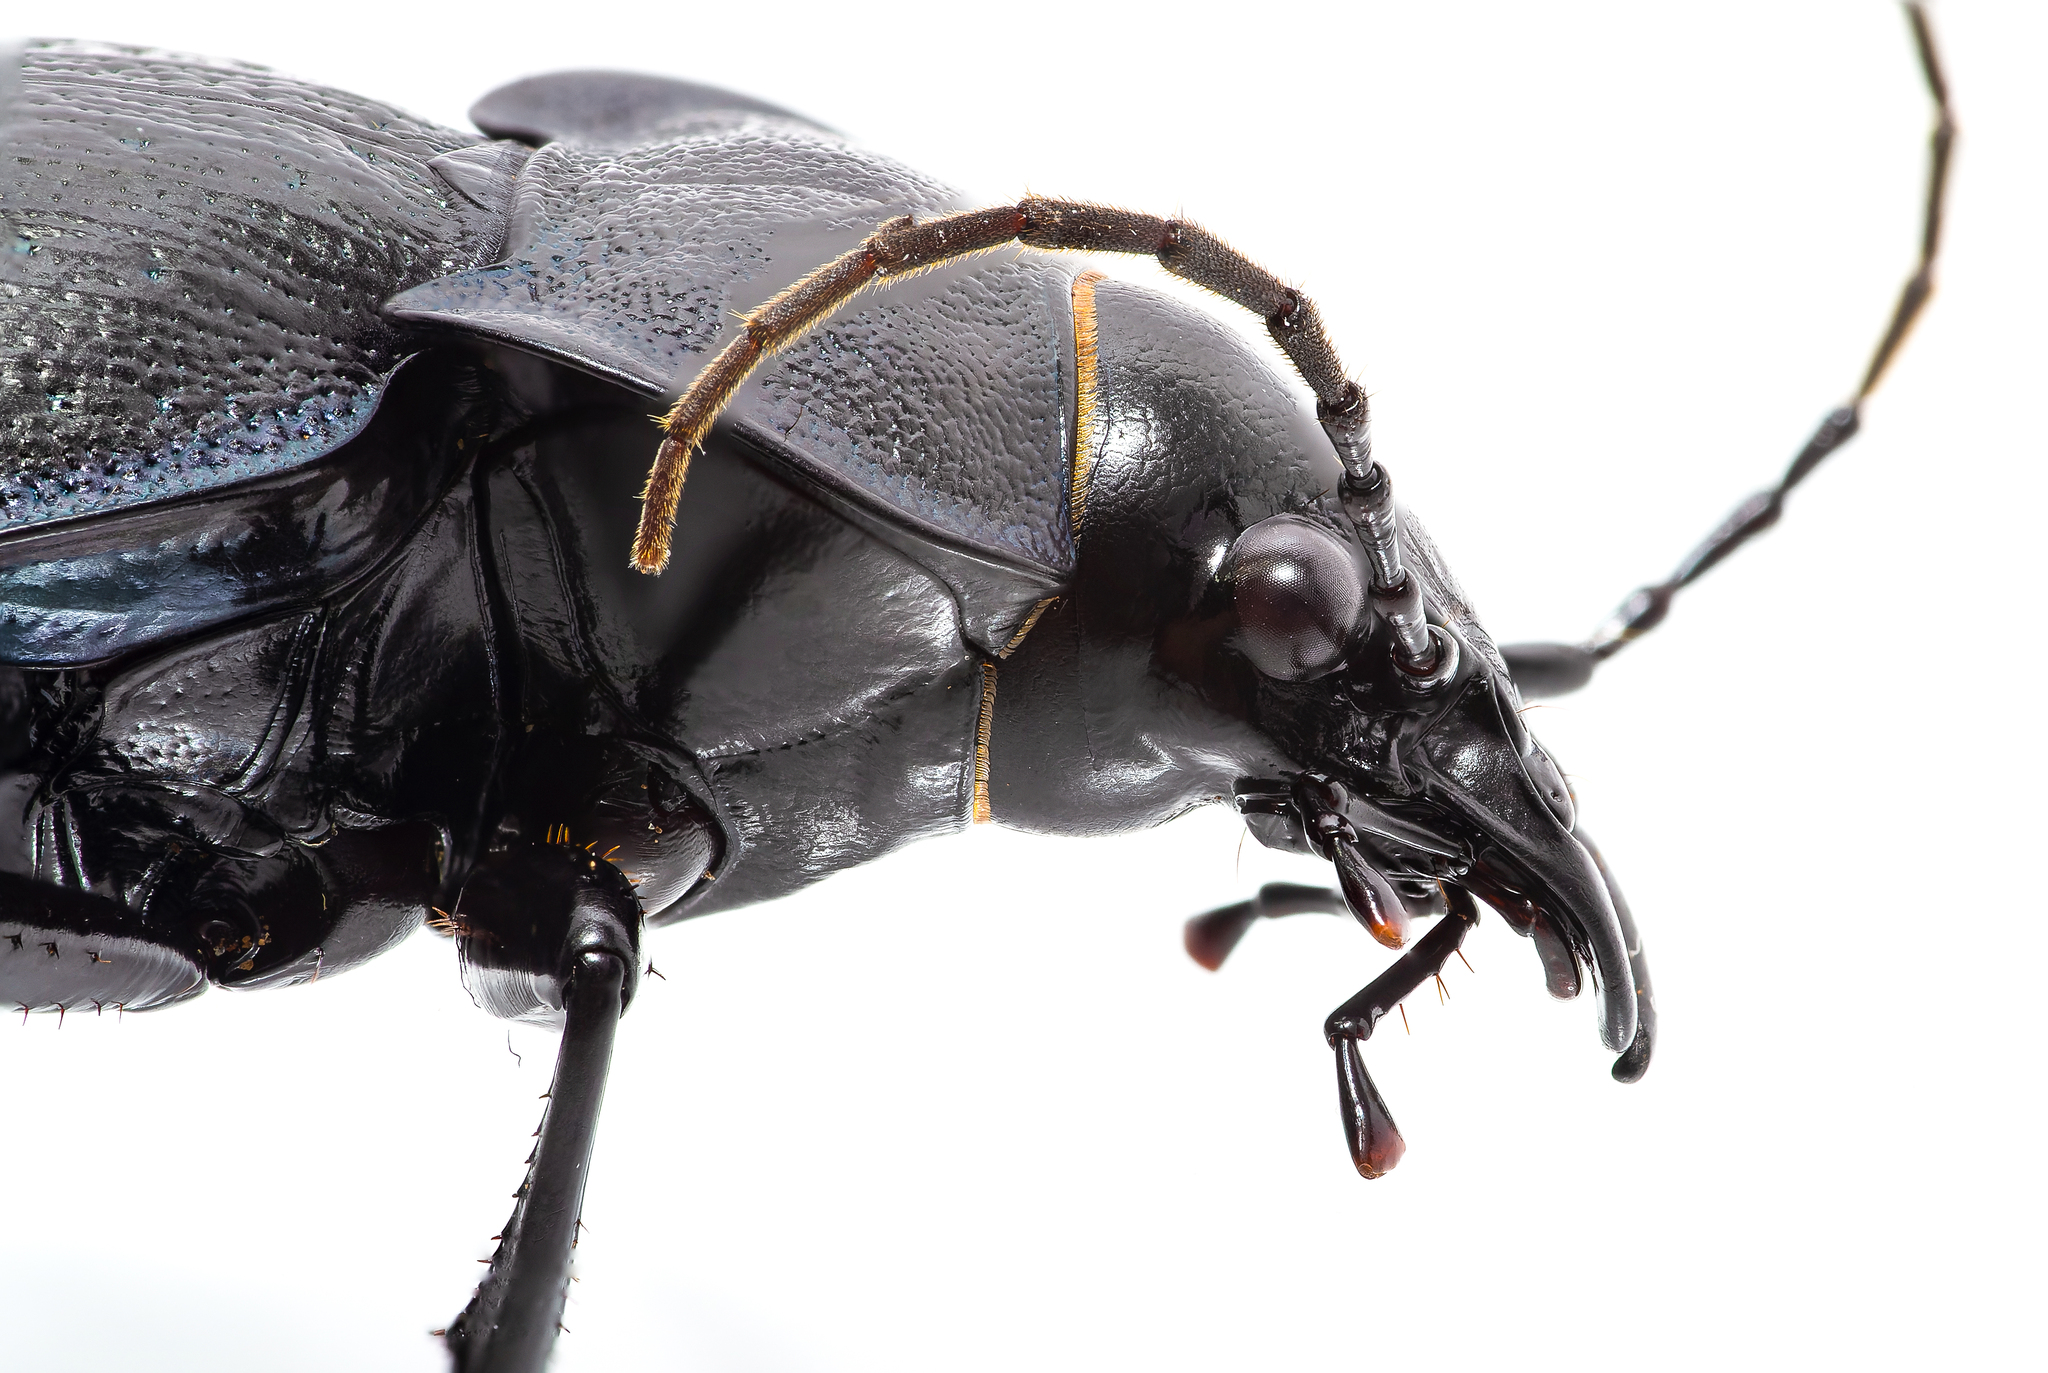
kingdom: Animalia
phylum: Arthropoda
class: Insecta
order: Coleoptera
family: Carabidae
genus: Carabus
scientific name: Carabus lusitanicus
